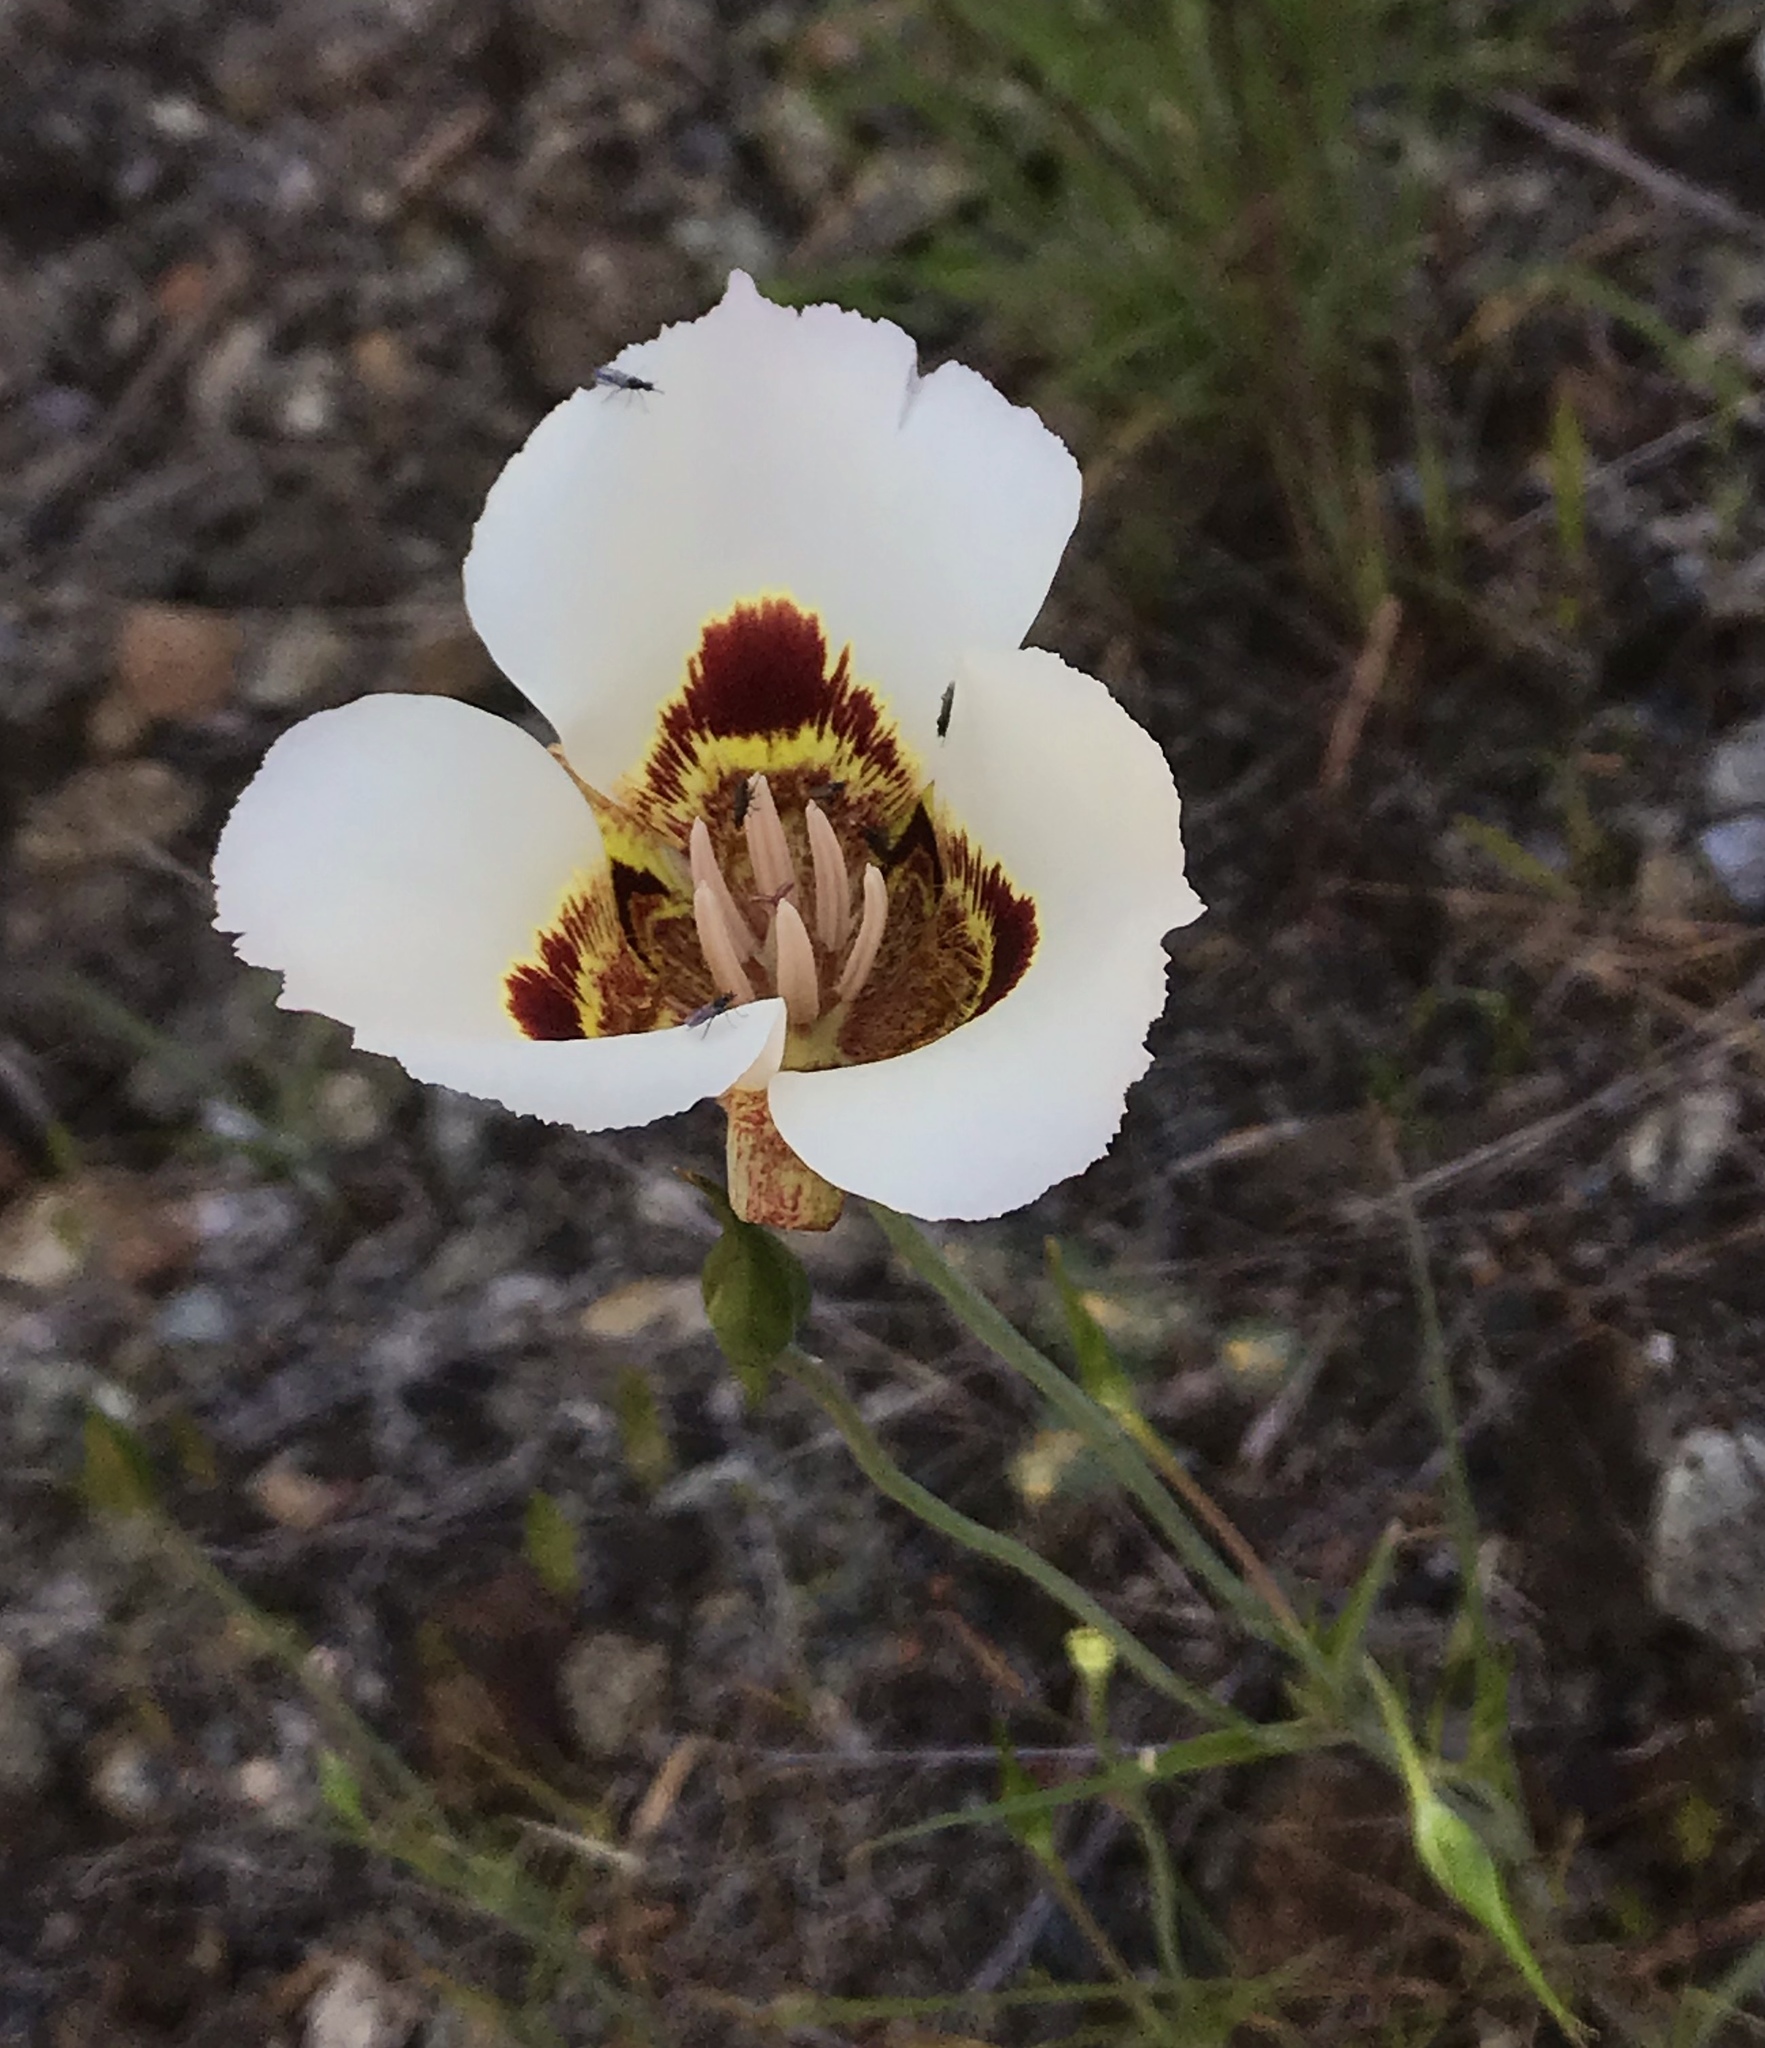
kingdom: Plantae
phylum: Tracheophyta
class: Liliopsida
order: Liliales
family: Liliaceae
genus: Calochortus
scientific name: Calochortus vestae
